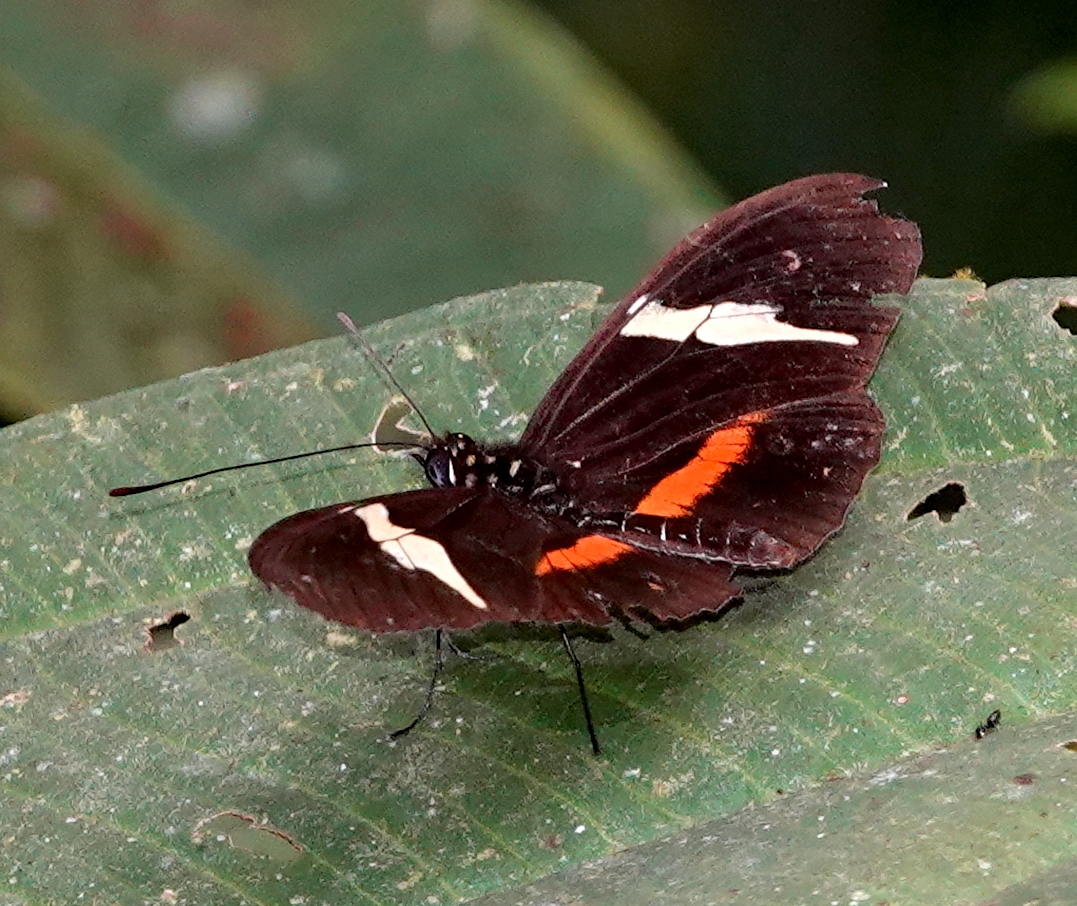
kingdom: Animalia
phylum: Arthropoda
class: Insecta
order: Lepidoptera
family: Nymphalidae
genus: Heliconius
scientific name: Heliconius clysonymus
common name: Clysonymus longwing
